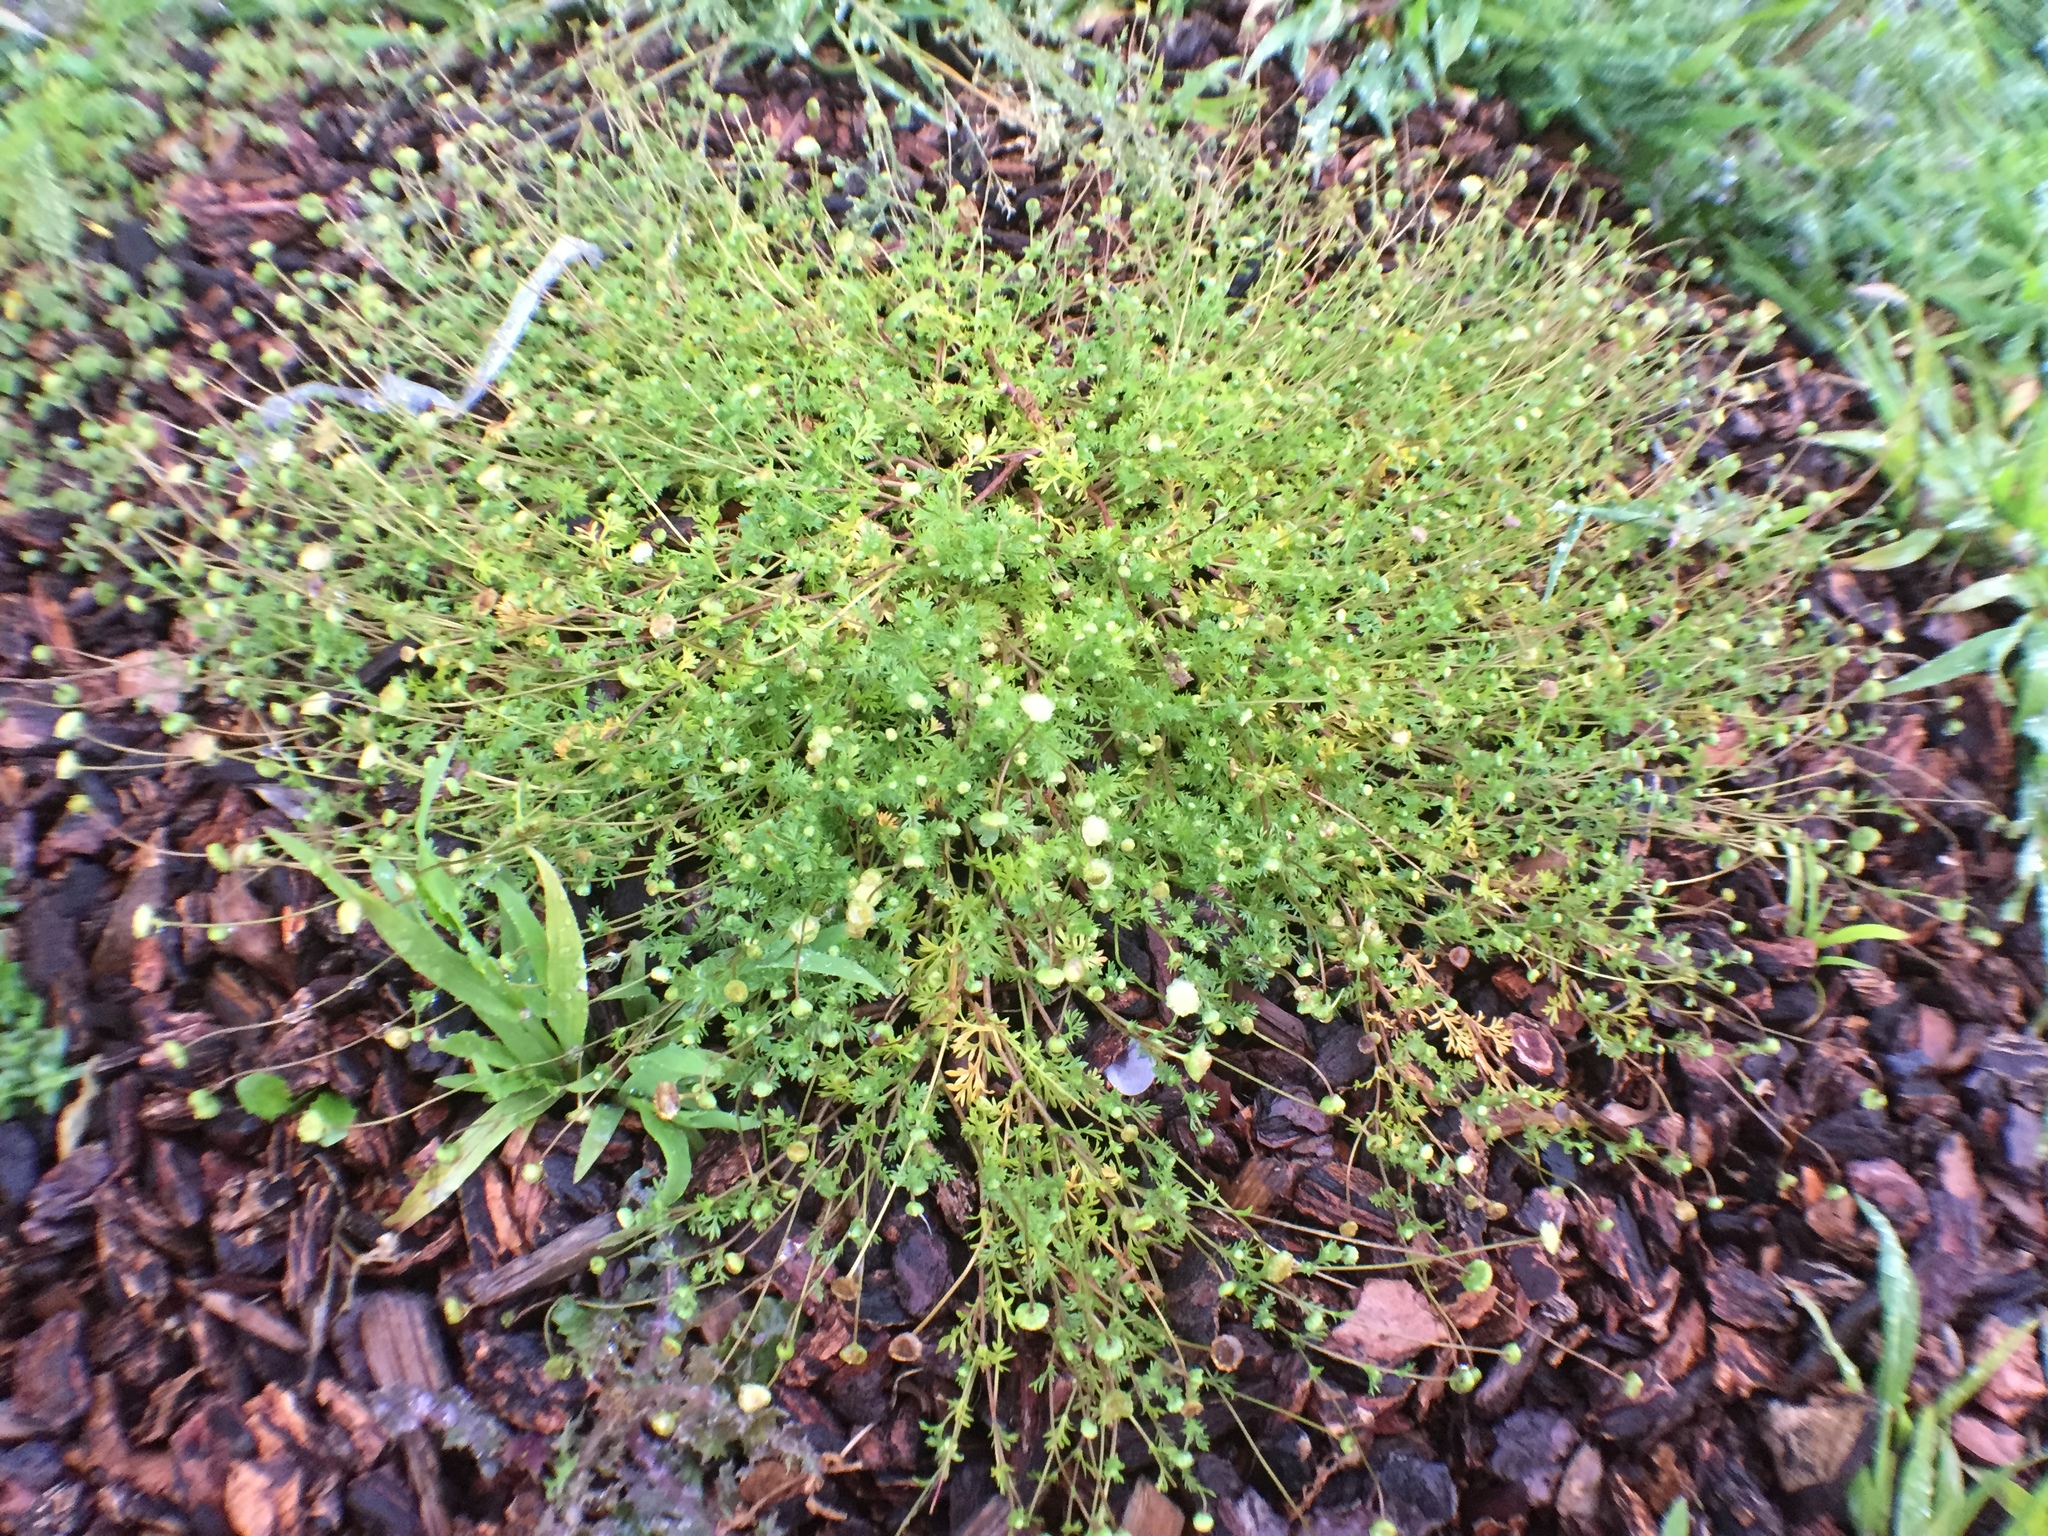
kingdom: Plantae
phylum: Tracheophyta
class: Magnoliopsida
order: Asterales
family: Asteraceae
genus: Cotula
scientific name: Cotula australis
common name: Australian waterbuttons
